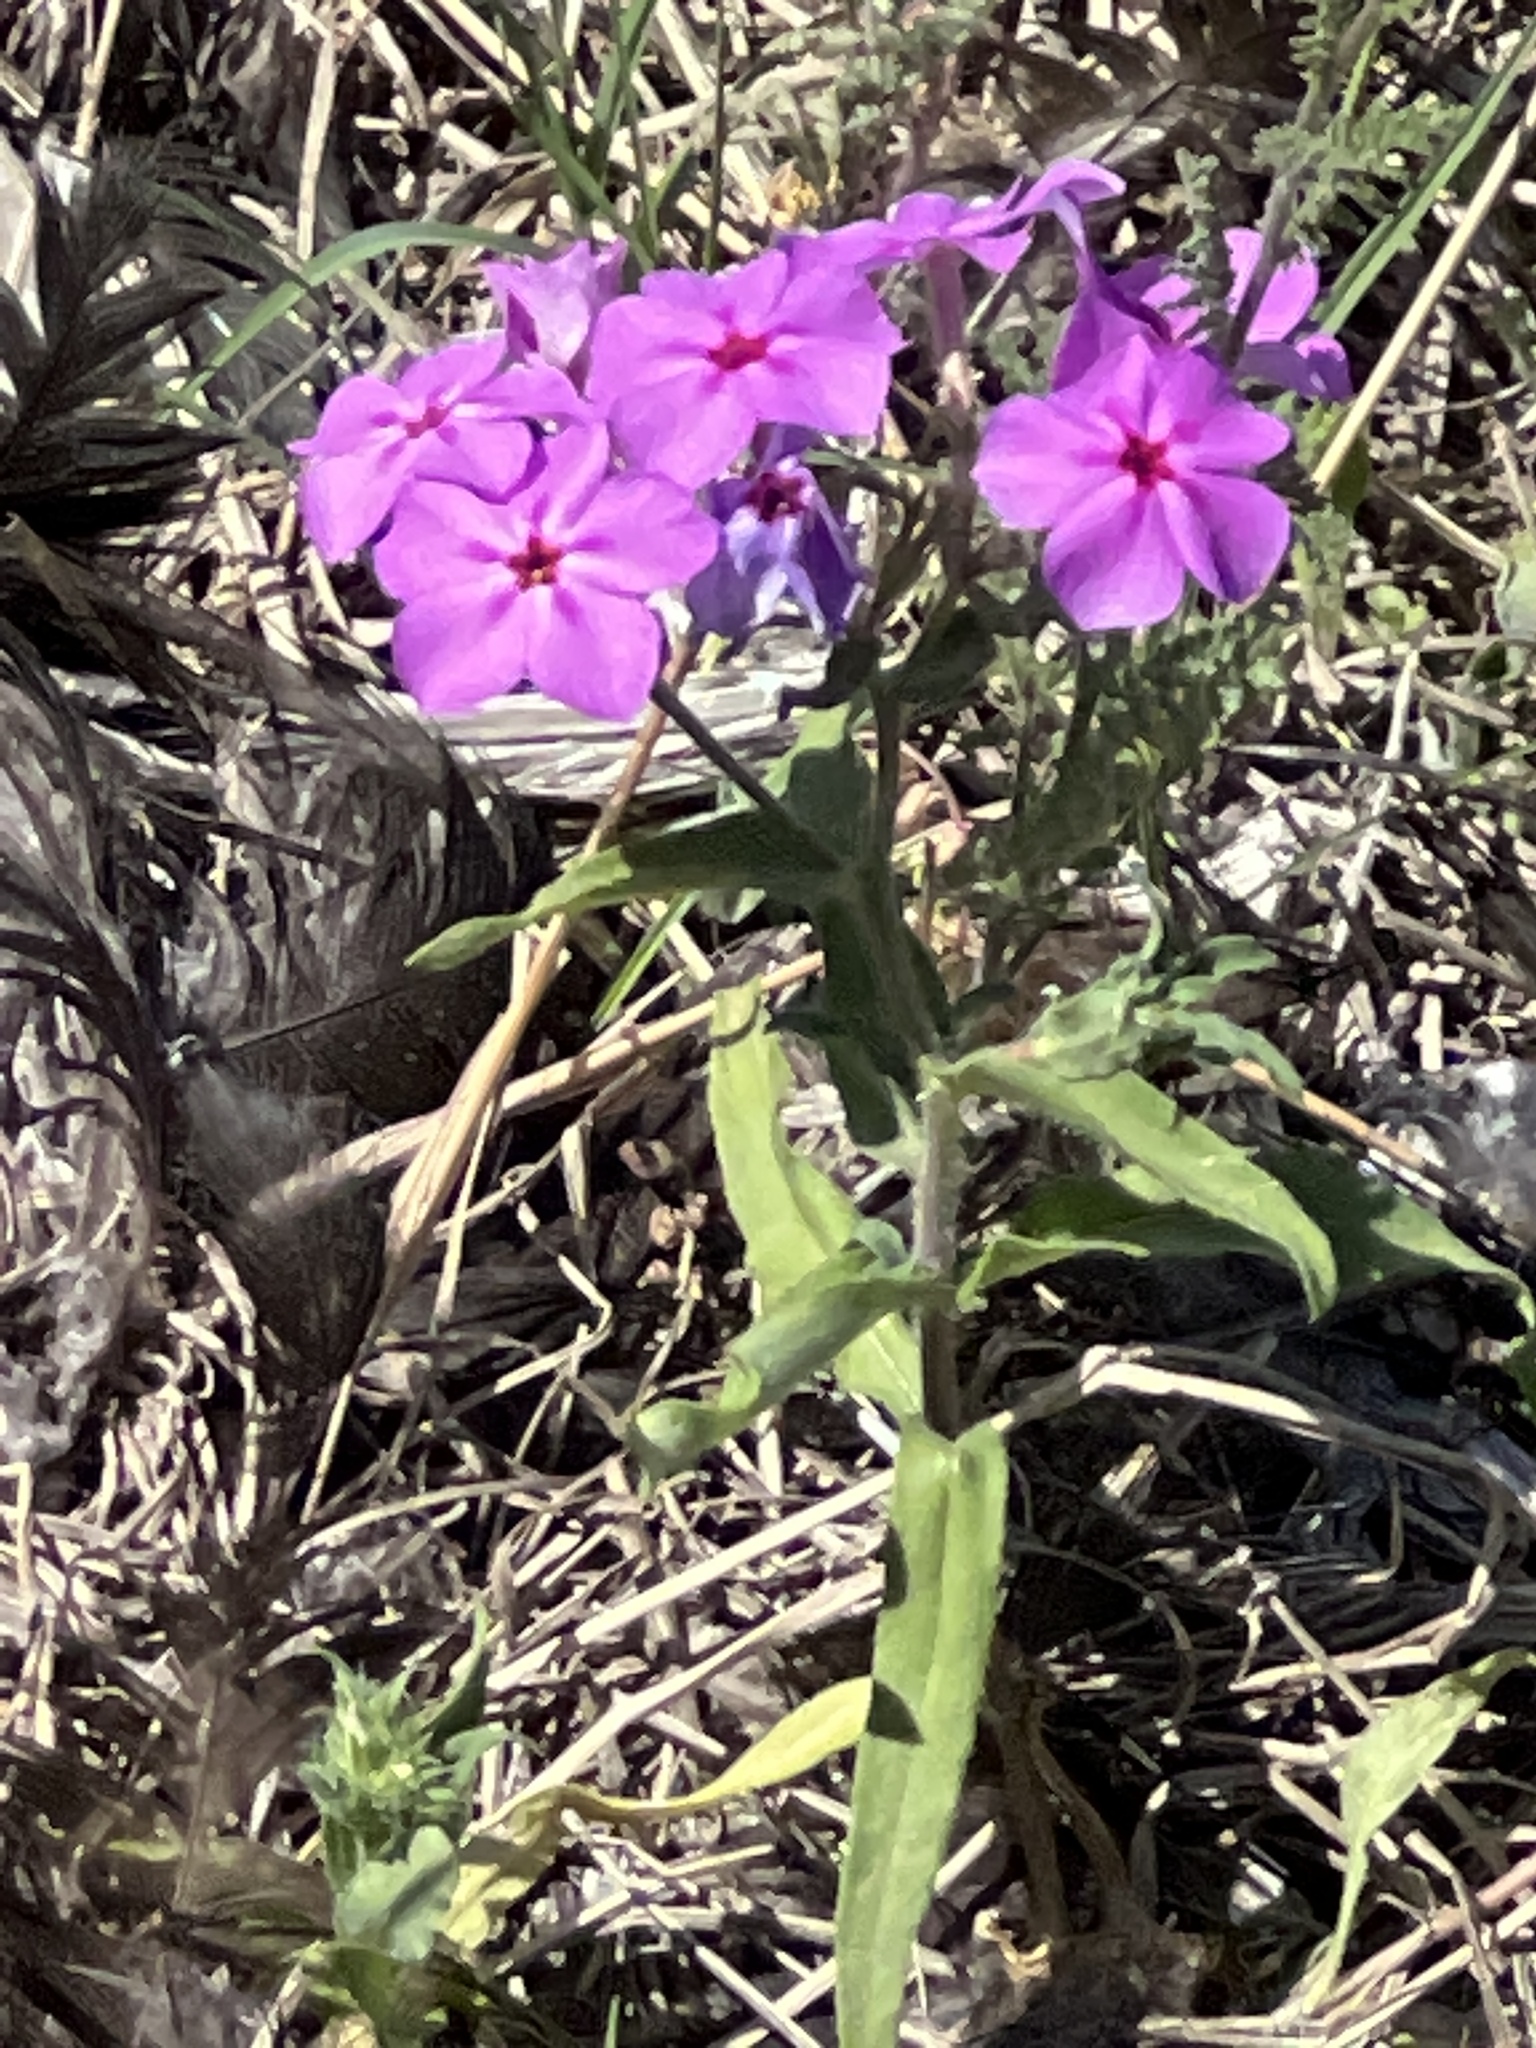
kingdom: Plantae
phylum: Tracheophyta
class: Magnoliopsida
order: Ericales
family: Polemoniaceae
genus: Phlox
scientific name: Phlox drummondii
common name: Drummond's phlox
